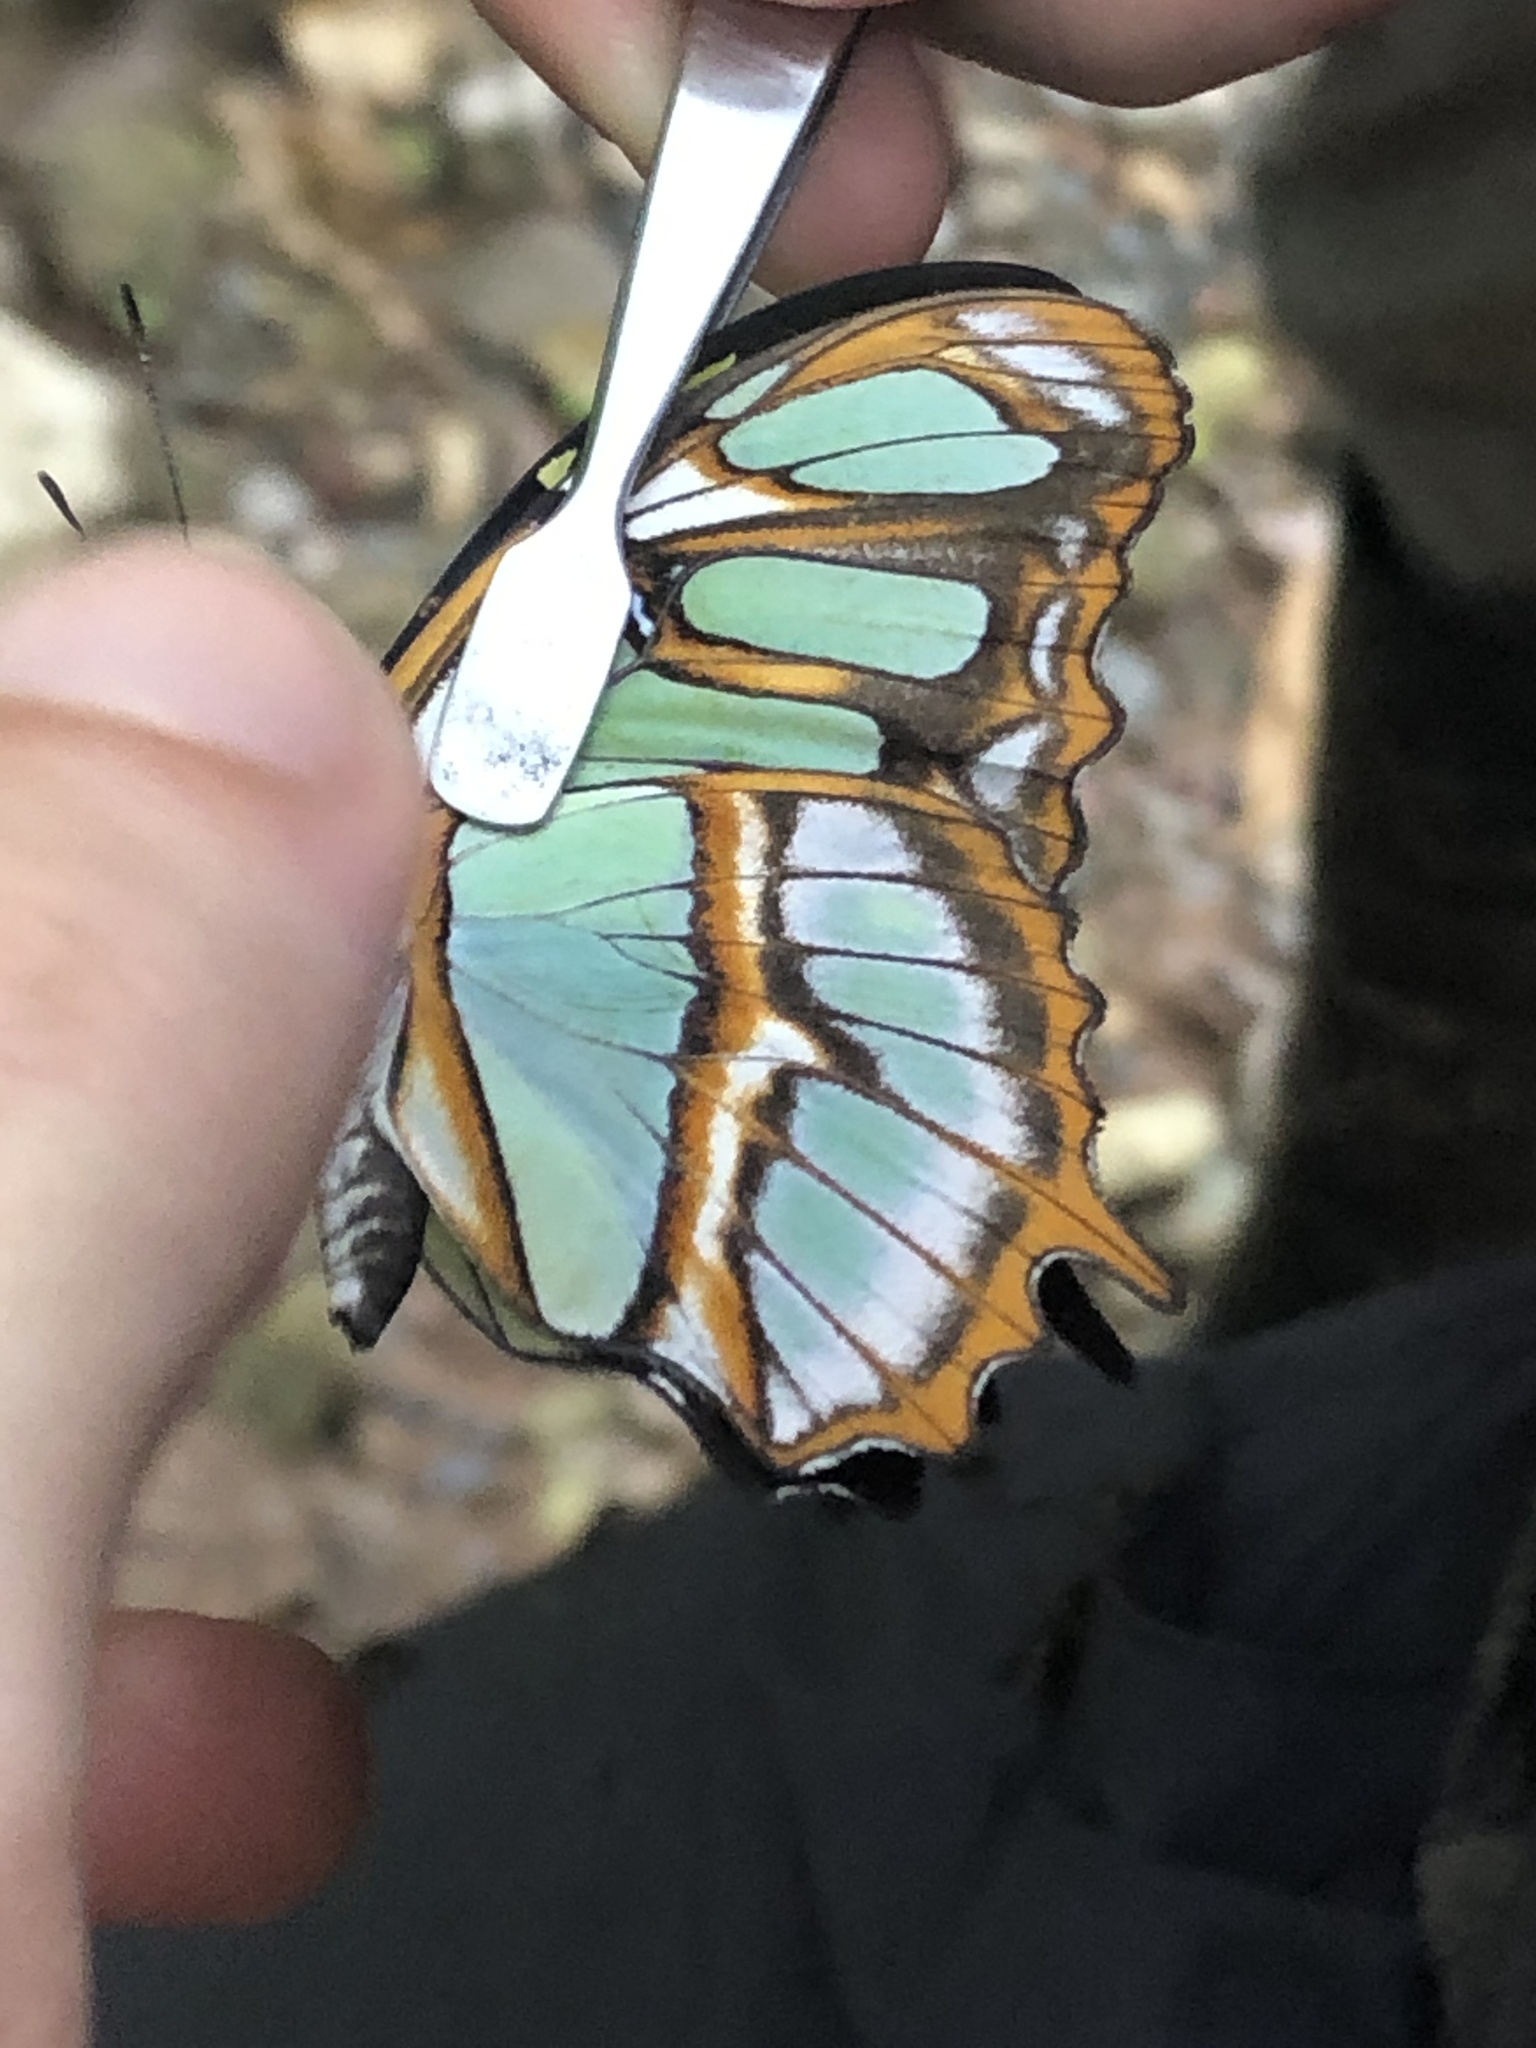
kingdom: Animalia
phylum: Arthropoda
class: Insecta
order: Lepidoptera
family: Nymphalidae
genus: Siproeta
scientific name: Siproeta stelenes
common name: Malachite
